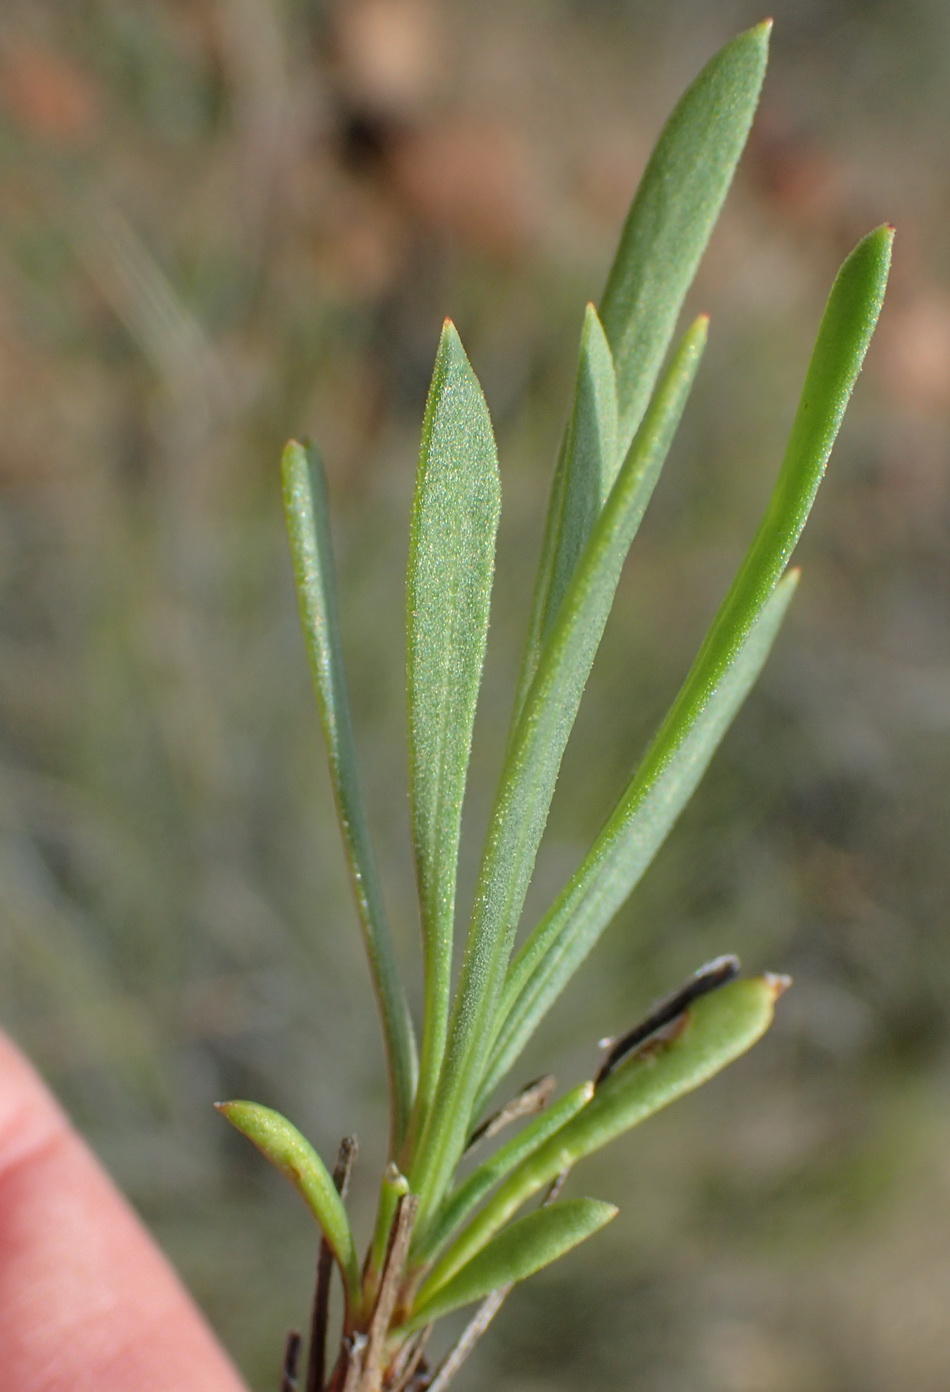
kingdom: Plantae
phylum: Tracheophyta
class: Magnoliopsida
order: Asterales
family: Asteraceae
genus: Dimorphotheca
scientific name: Dimorphotheca zeyheri
